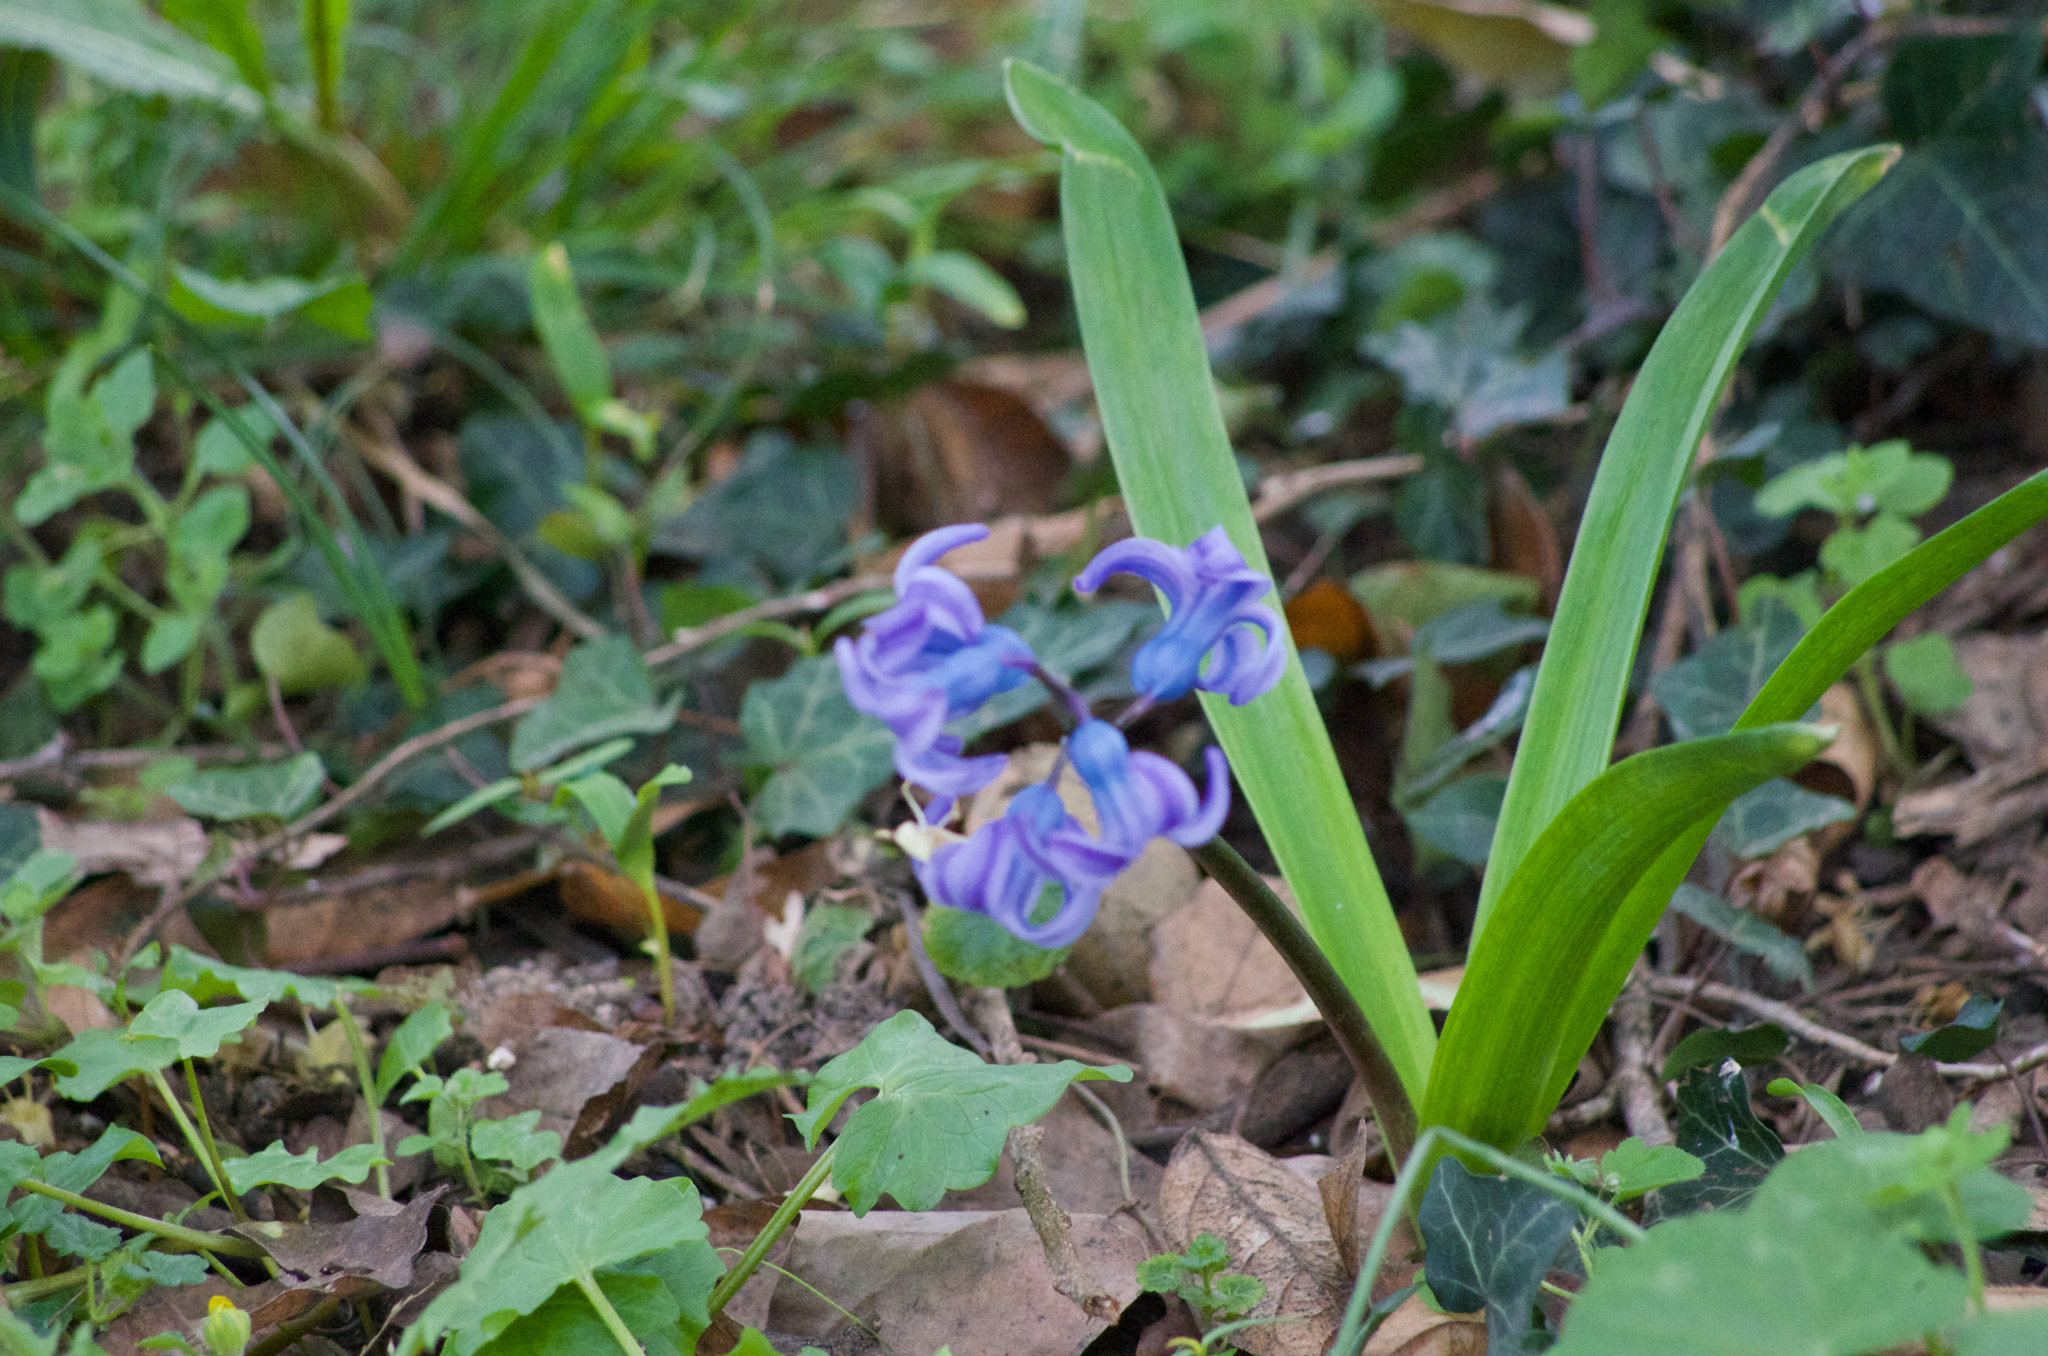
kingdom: Plantae
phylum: Tracheophyta
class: Liliopsida
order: Asparagales
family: Asparagaceae
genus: Hyacinthus
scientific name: Hyacinthus orientalis
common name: Hyacinth
